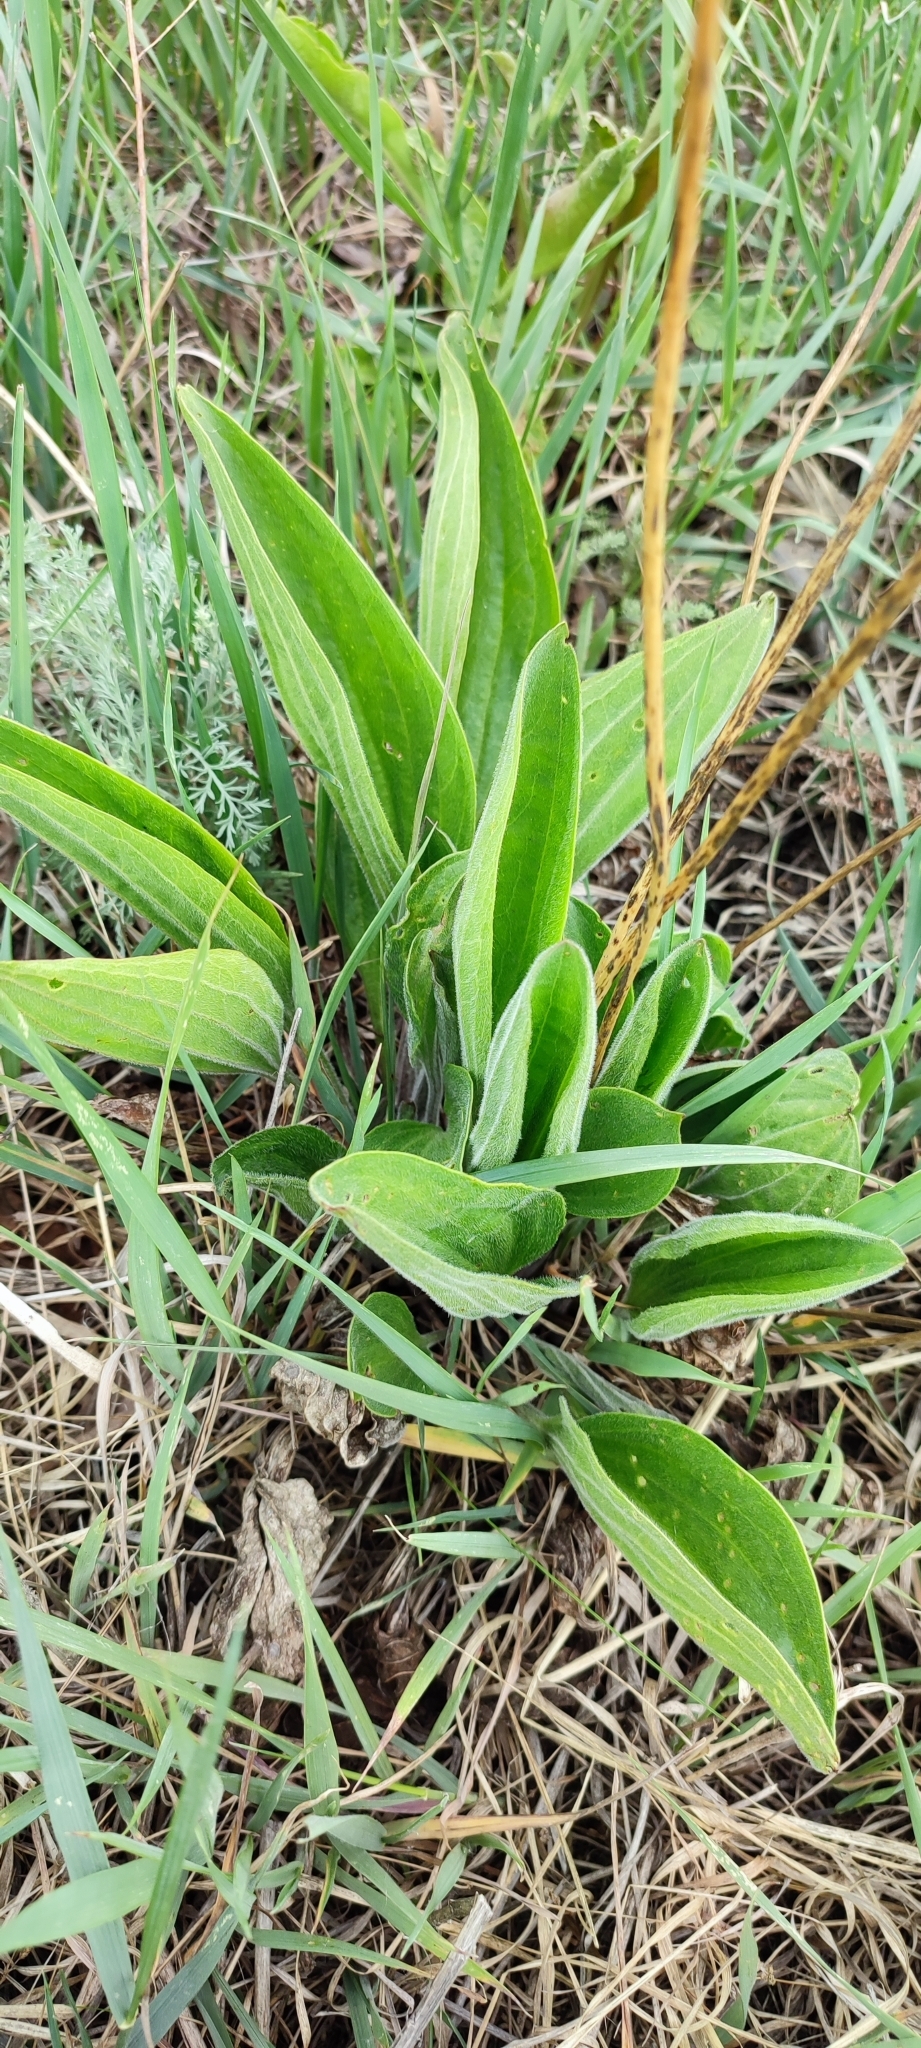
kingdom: Plantae
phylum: Tracheophyta
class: Magnoliopsida
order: Lamiales
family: Plantaginaceae
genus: Plantago
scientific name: Plantago cornuti
